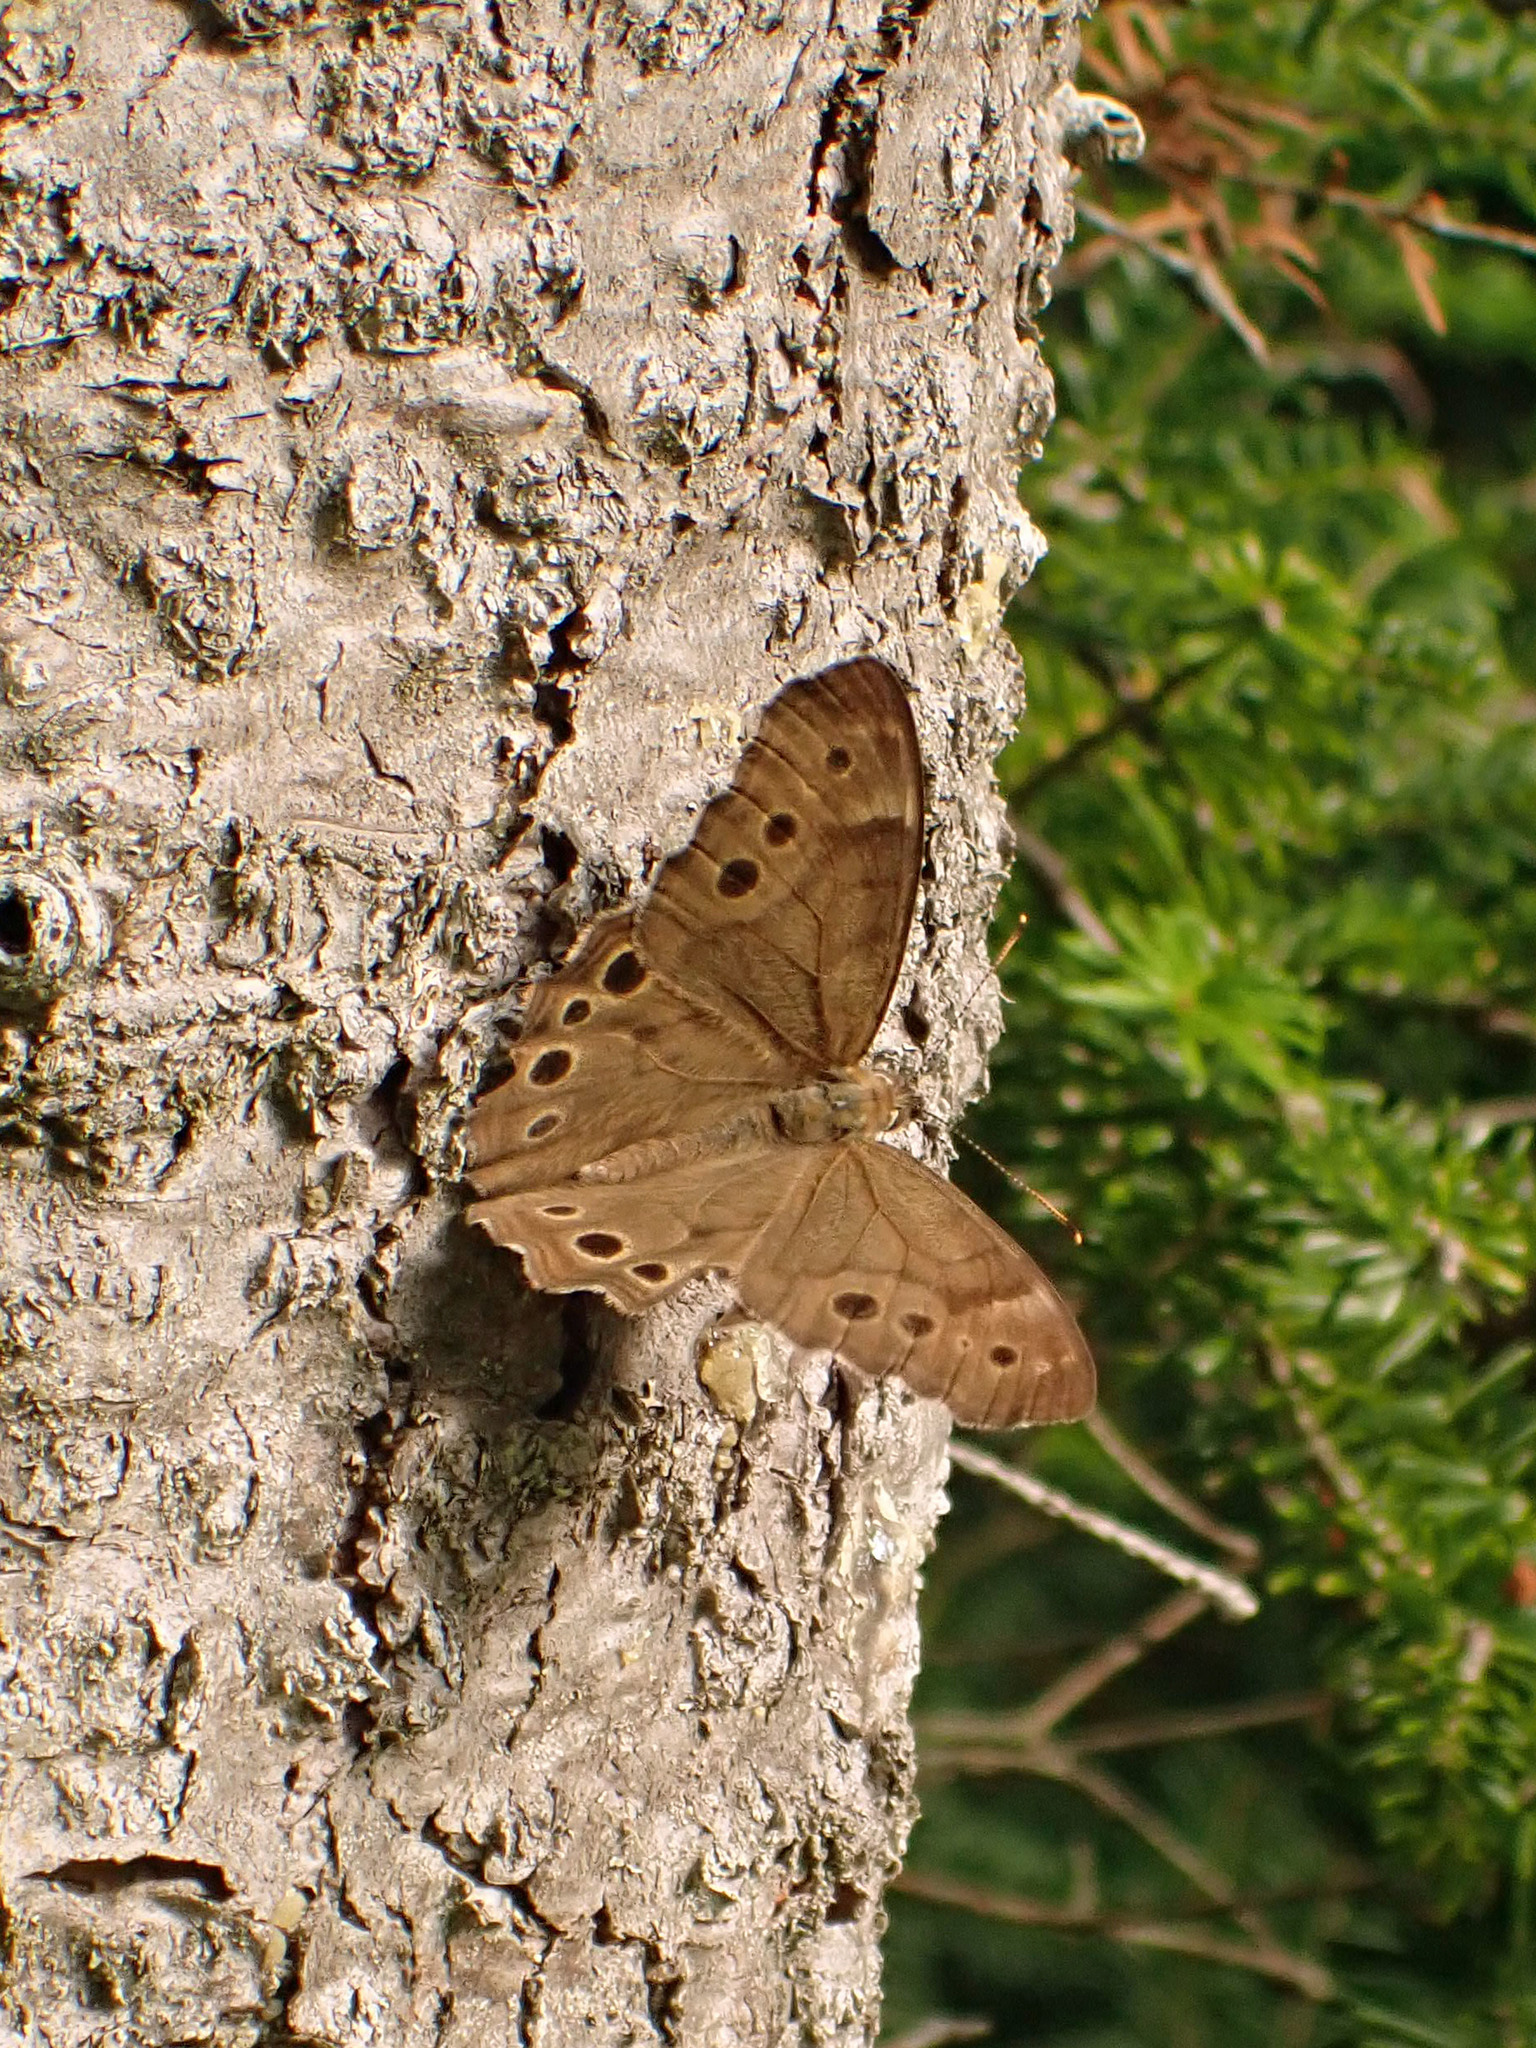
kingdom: Animalia
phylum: Arthropoda
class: Insecta
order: Lepidoptera
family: Nymphalidae
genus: Lethe
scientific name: Lethe anthedon
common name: Northern pearly-eye
